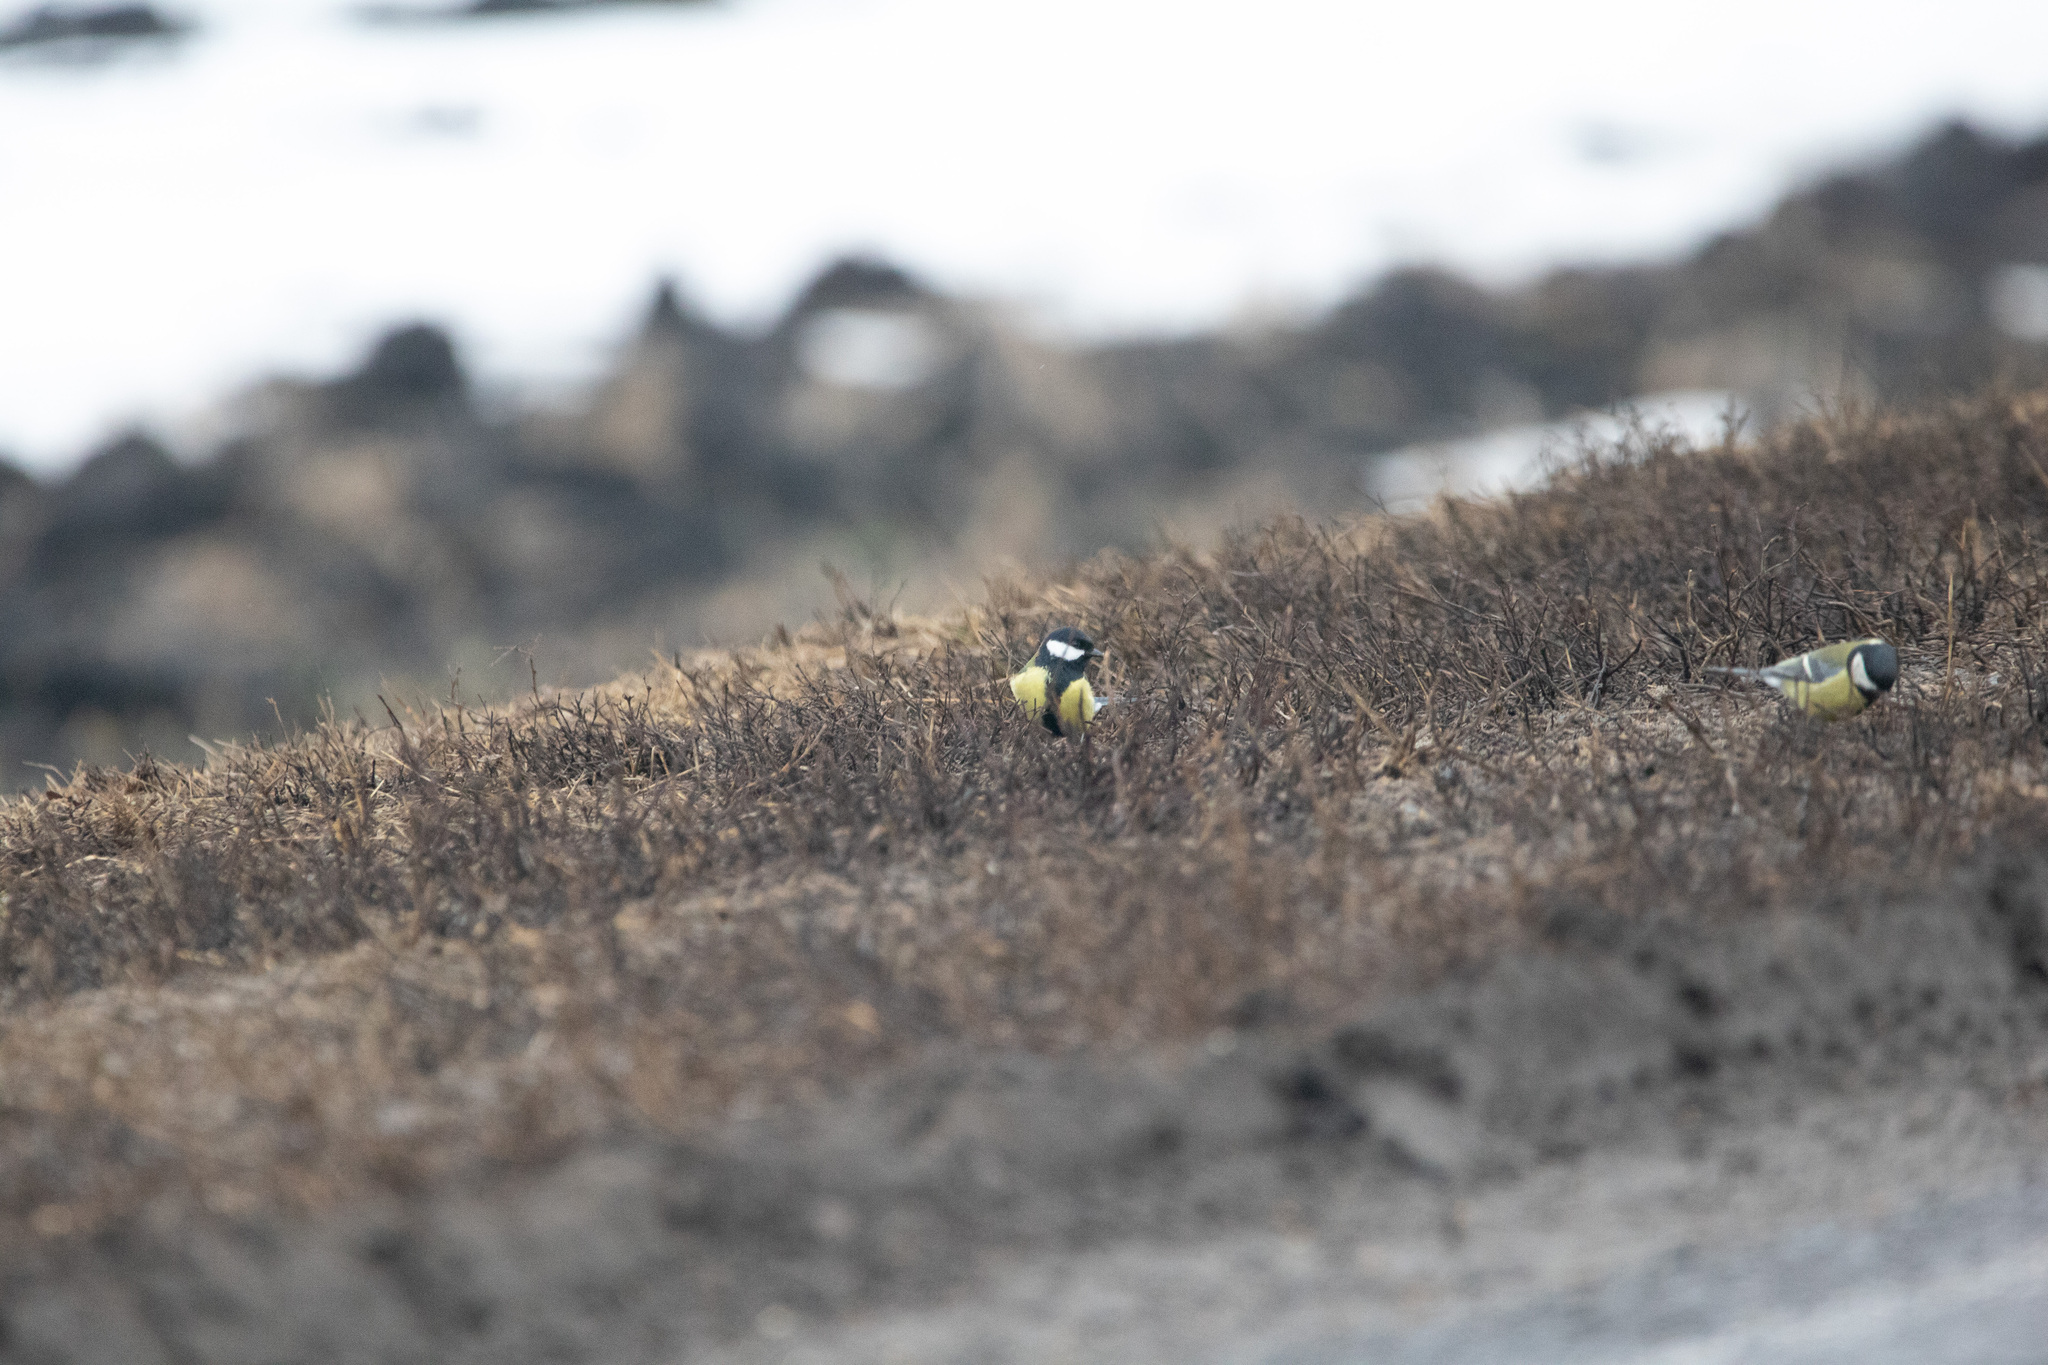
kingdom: Animalia
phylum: Chordata
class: Aves
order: Passeriformes
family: Paridae
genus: Parus
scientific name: Parus major
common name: Great tit
